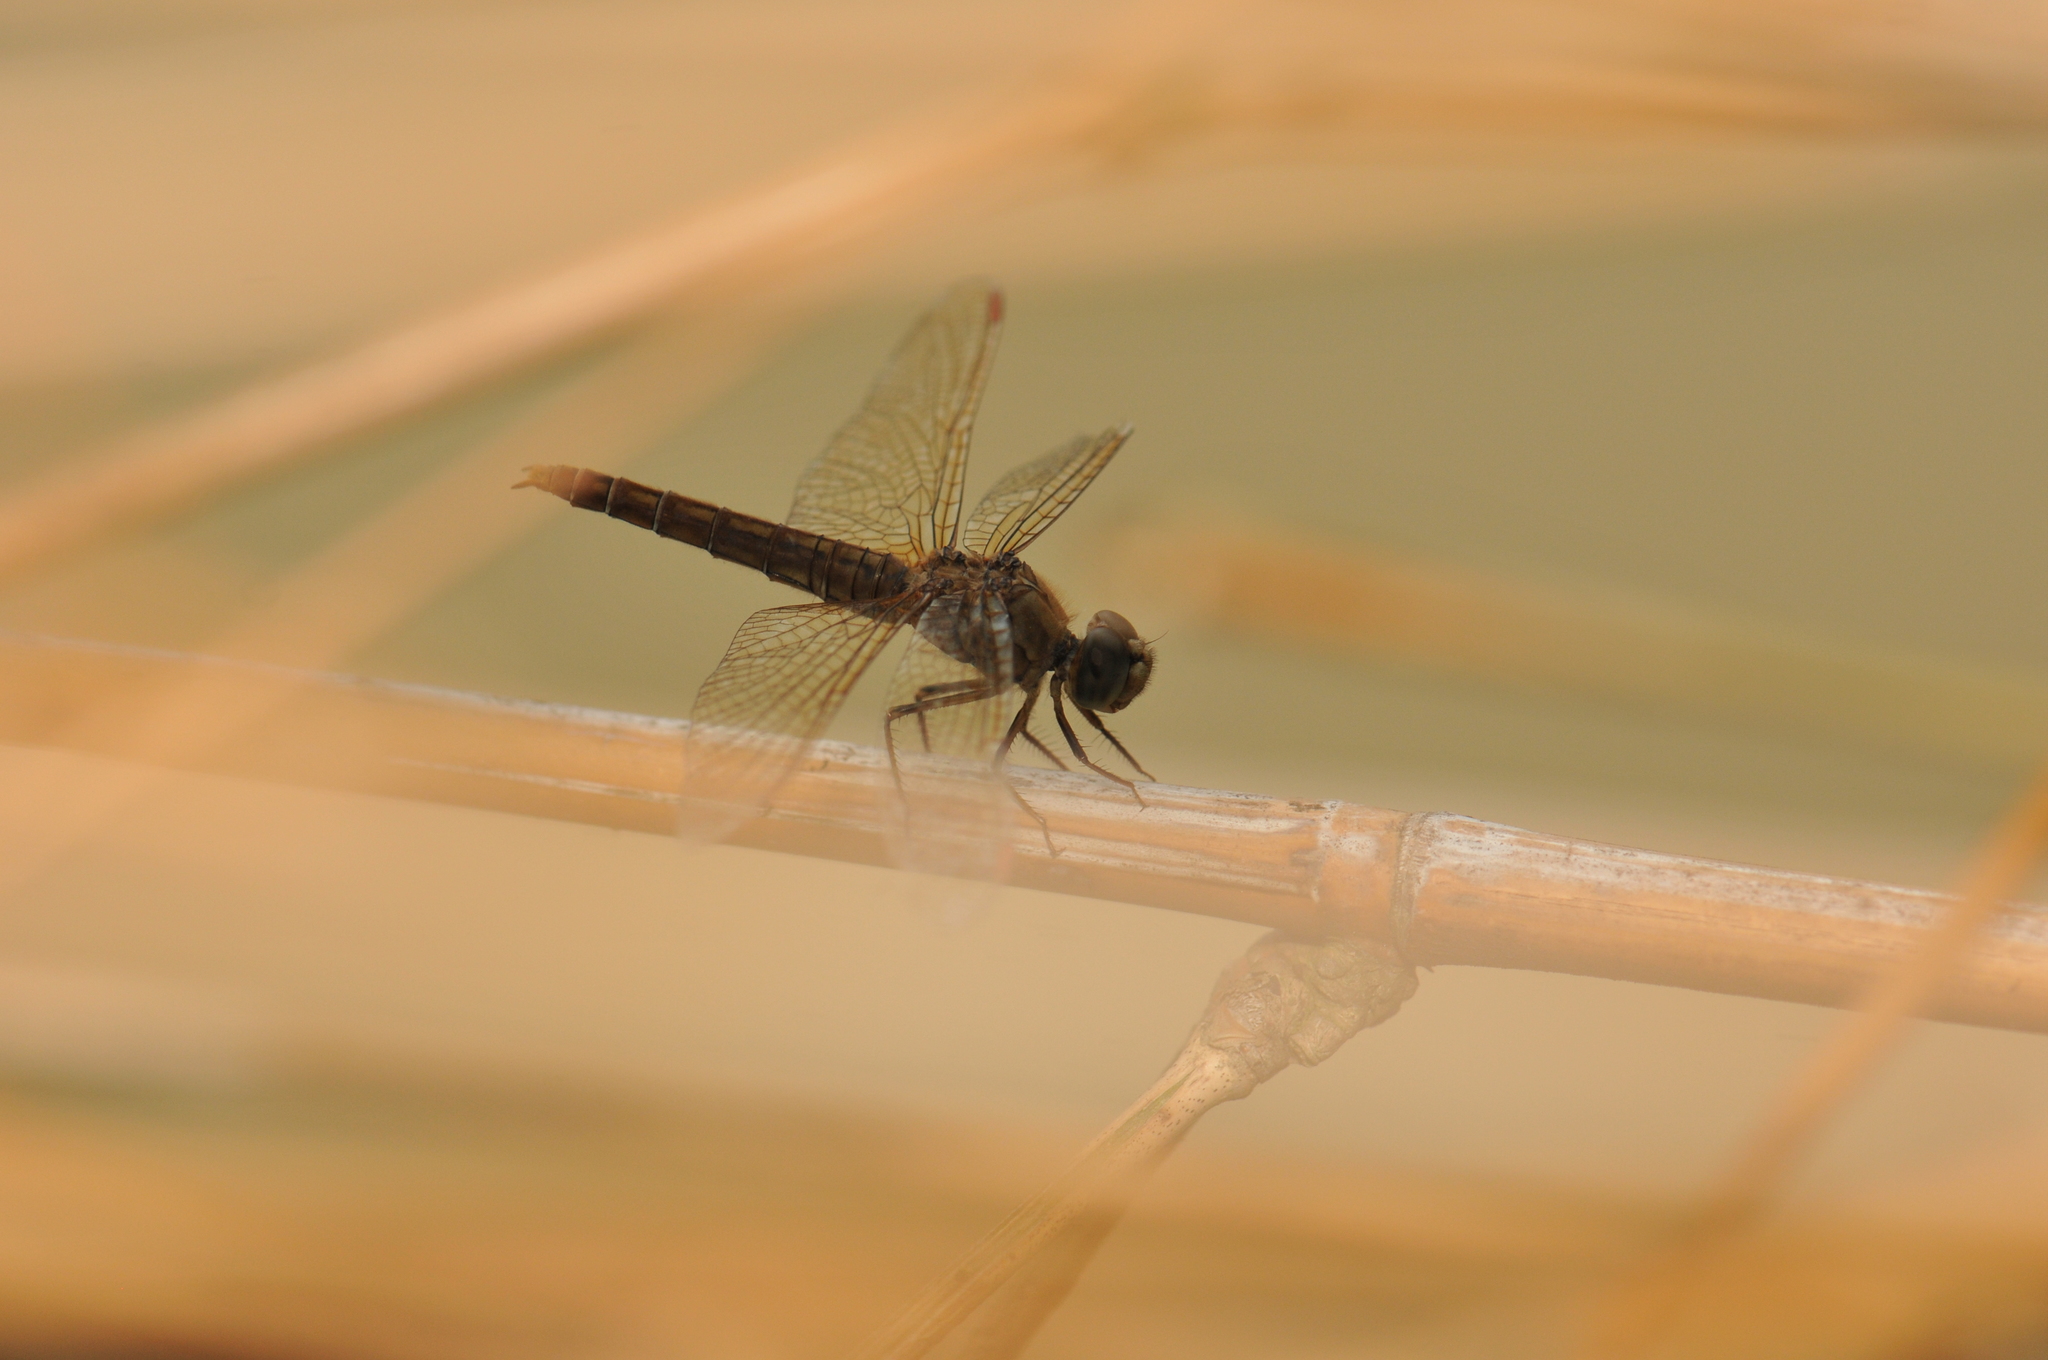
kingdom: Animalia
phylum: Arthropoda
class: Insecta
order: Odonata
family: Libellulidae
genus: Brachythemis
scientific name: Brachythemis contaminata
